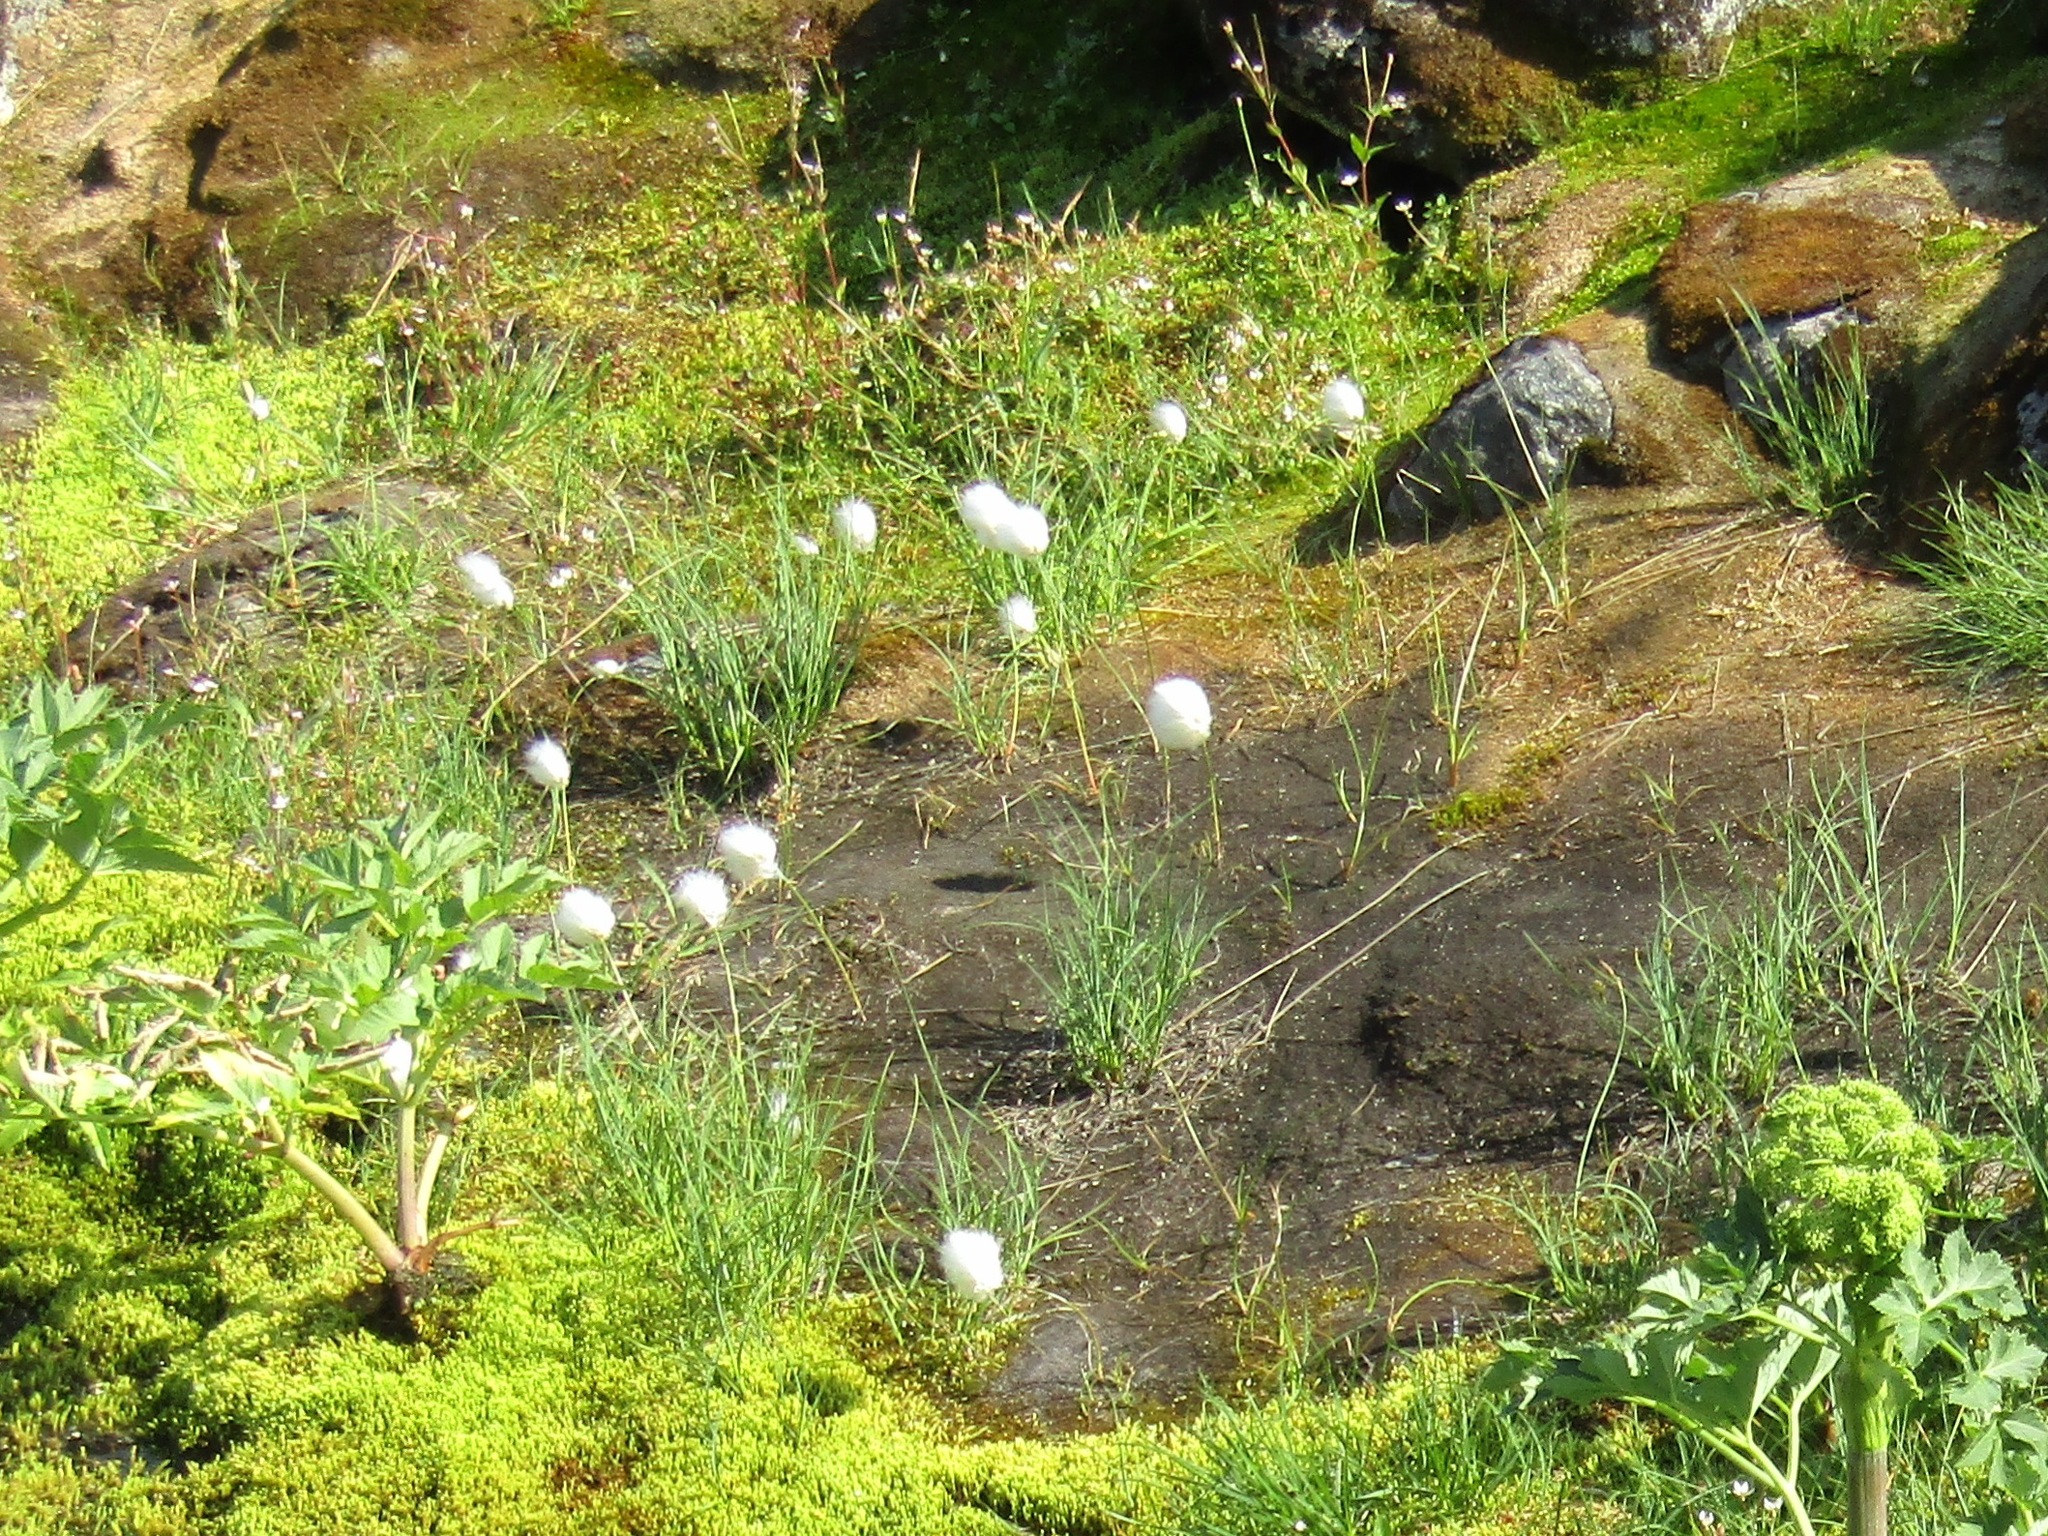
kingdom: Plantae
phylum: Tracheophyta
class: Liliopsida
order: Poales
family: Cyperaceae
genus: Eriophorum
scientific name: Eriophorum scheuchzeri
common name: Scheuchzer's cottongrass
